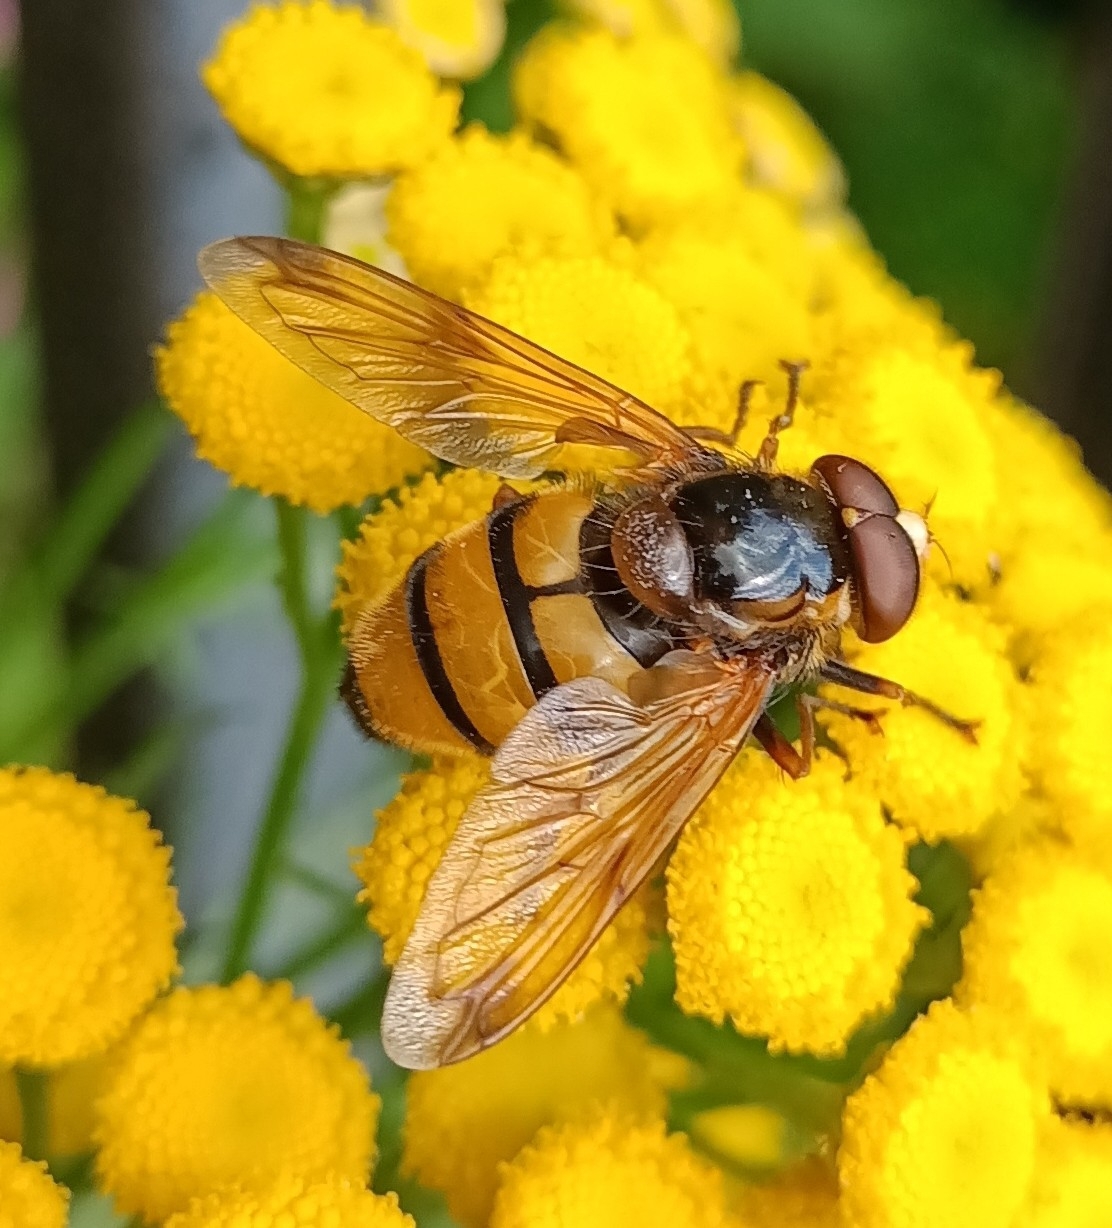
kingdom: Animalia
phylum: Arthropoda
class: Insecta
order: Diptera
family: Syrphidae
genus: Volucella
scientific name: Volucella inanis
